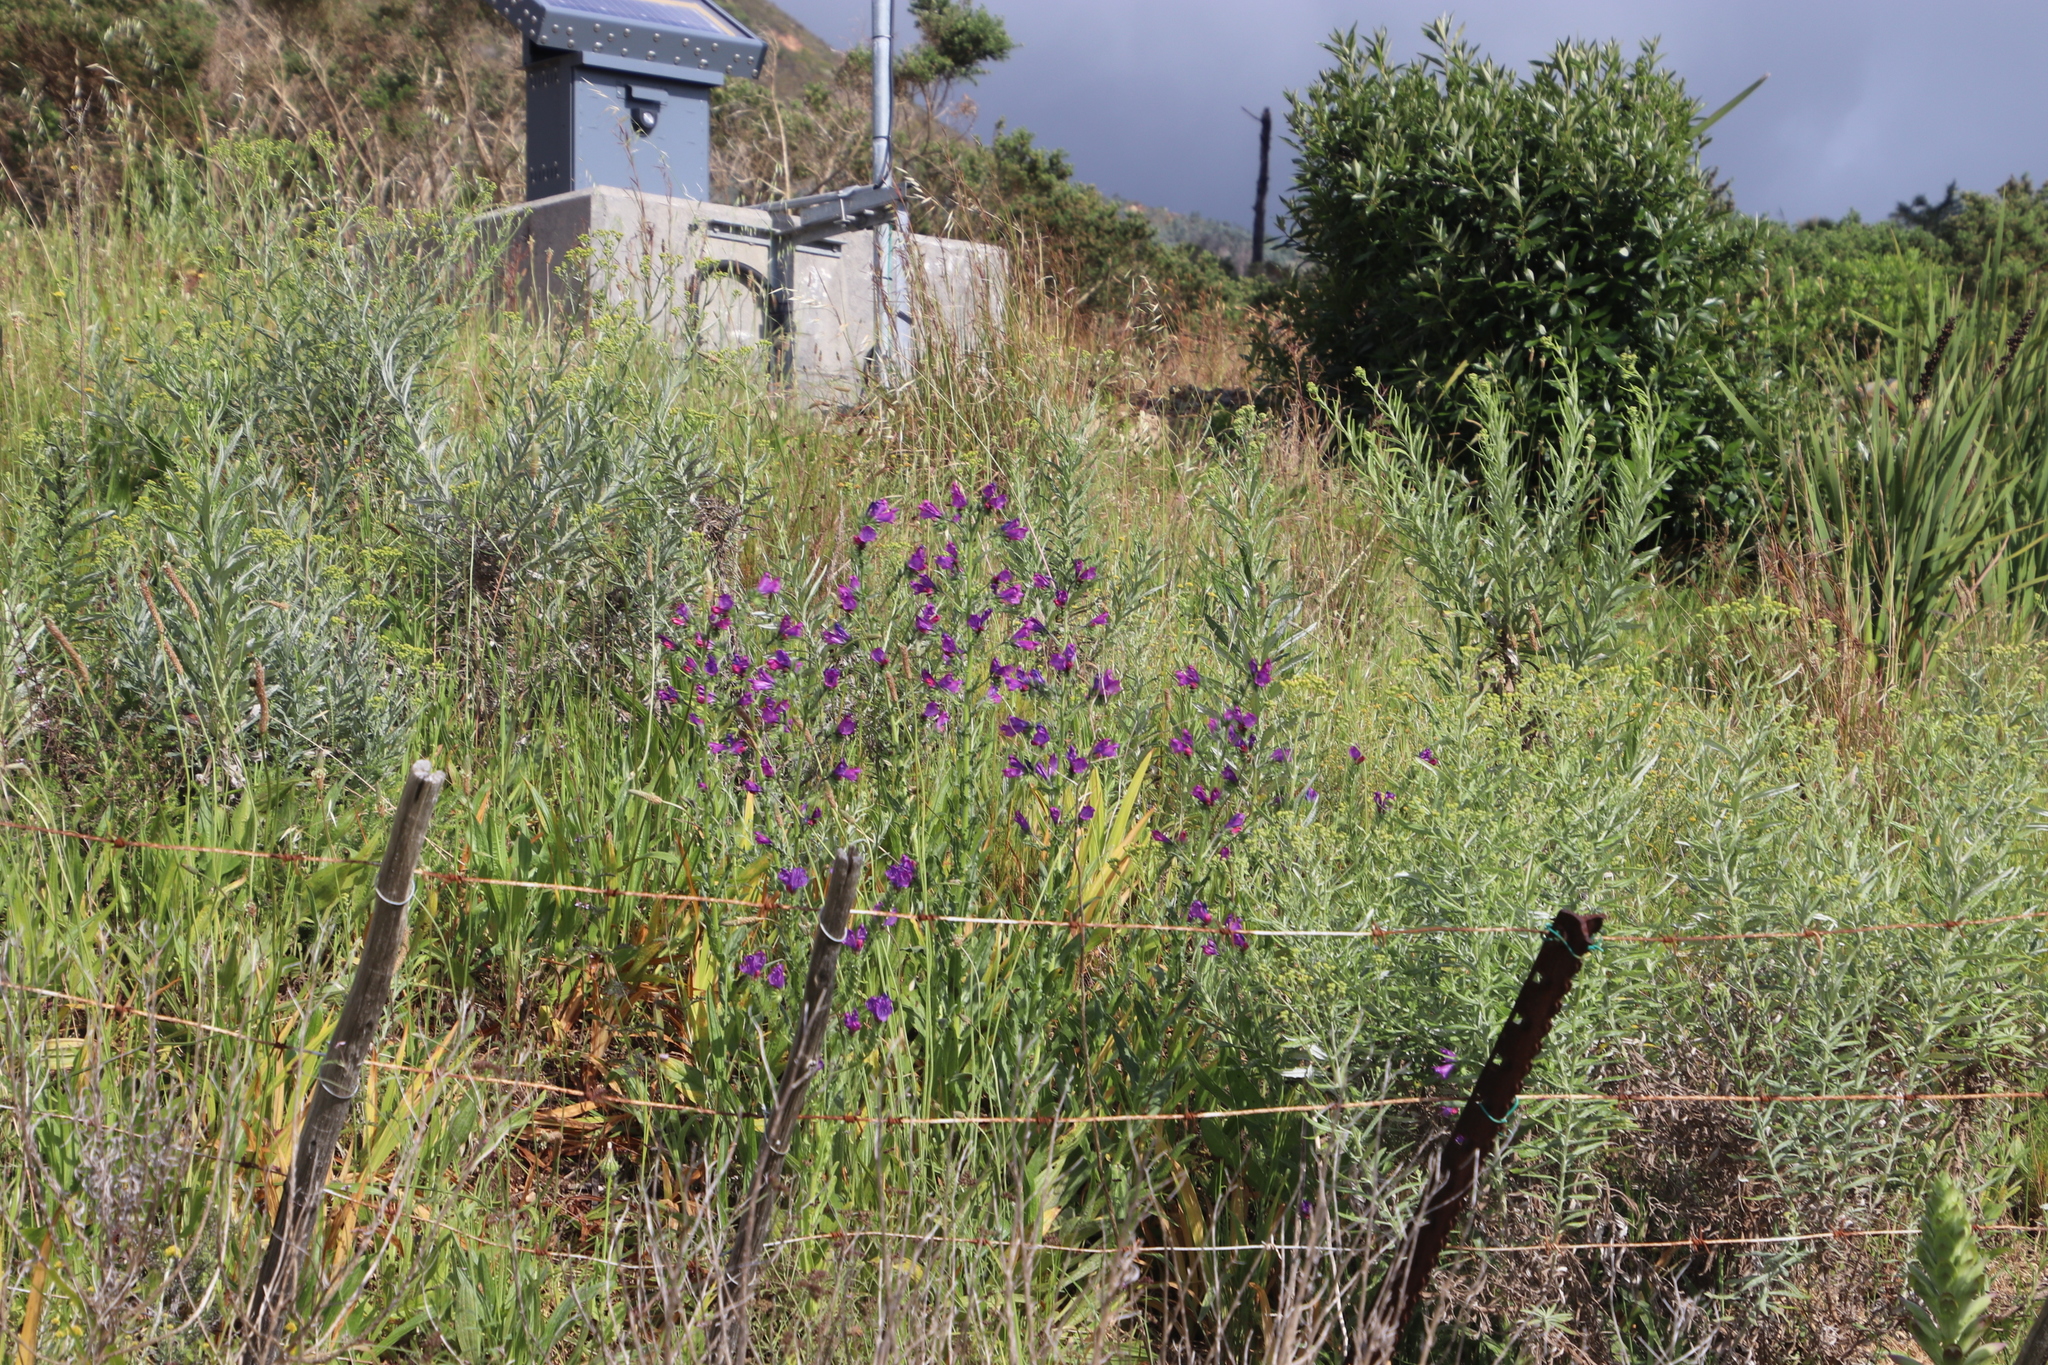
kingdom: Plantae
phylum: Tracheophyta
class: Magnoliopsida
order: Boraginales
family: Boraginaceae
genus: Echium
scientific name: Echium plantagineum
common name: Purple viper's-bugloss
